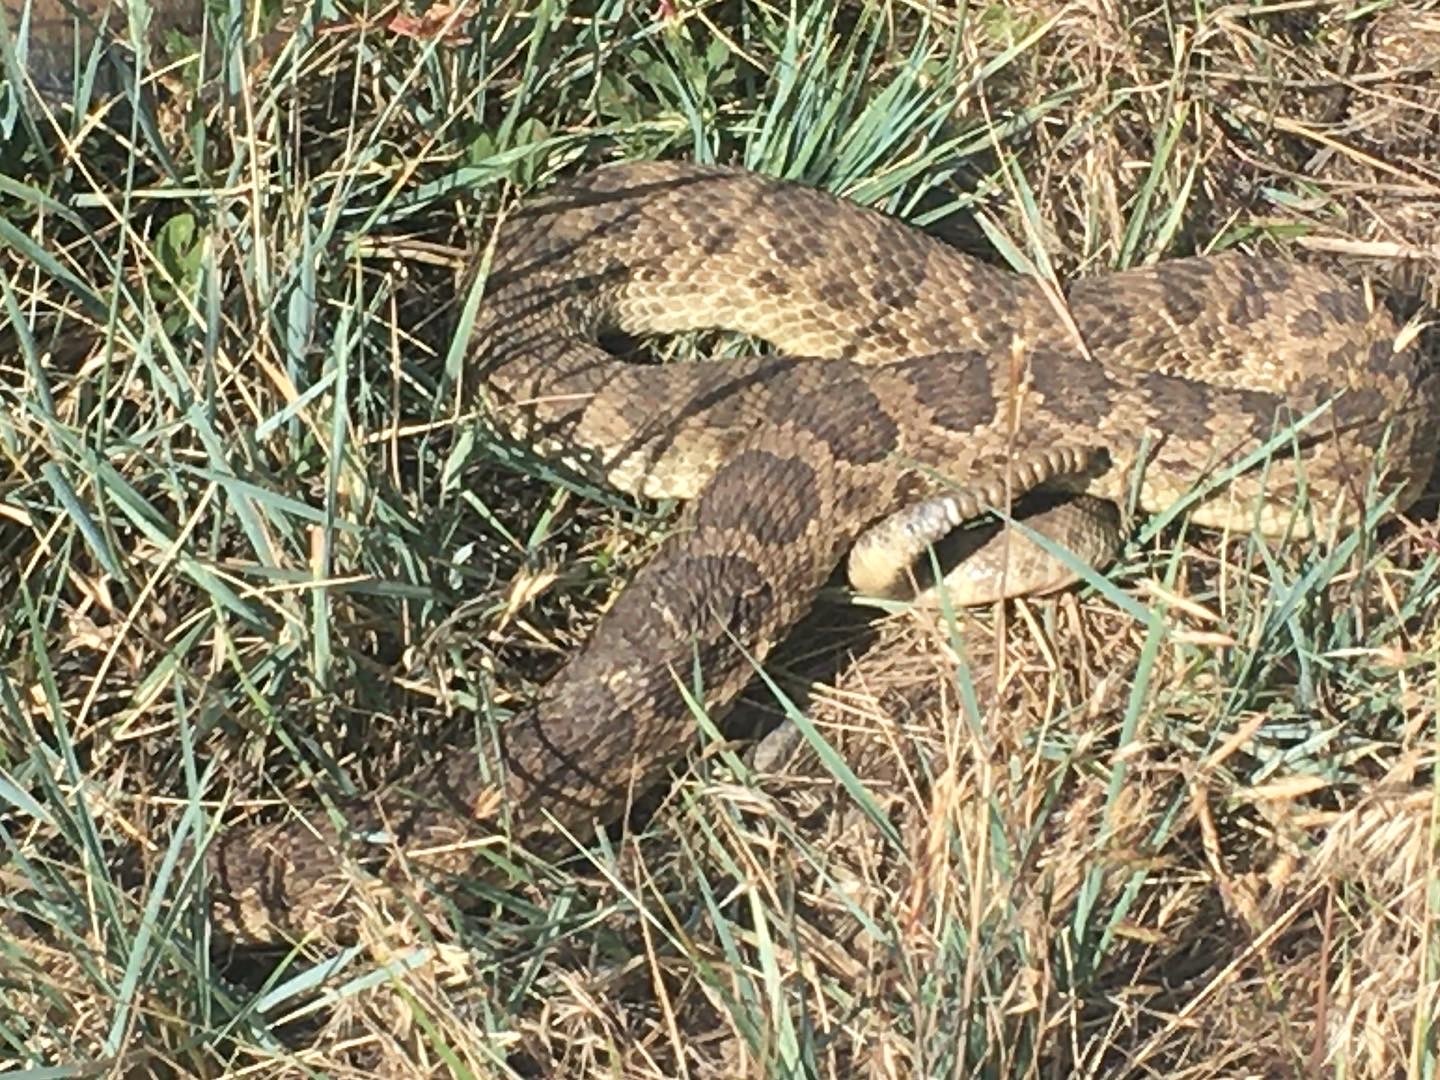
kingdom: Animalia
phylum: Chordata
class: Squamata
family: Viperidae
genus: Crotalus
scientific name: Crotalus viridis
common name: Prairie rattlesnake
